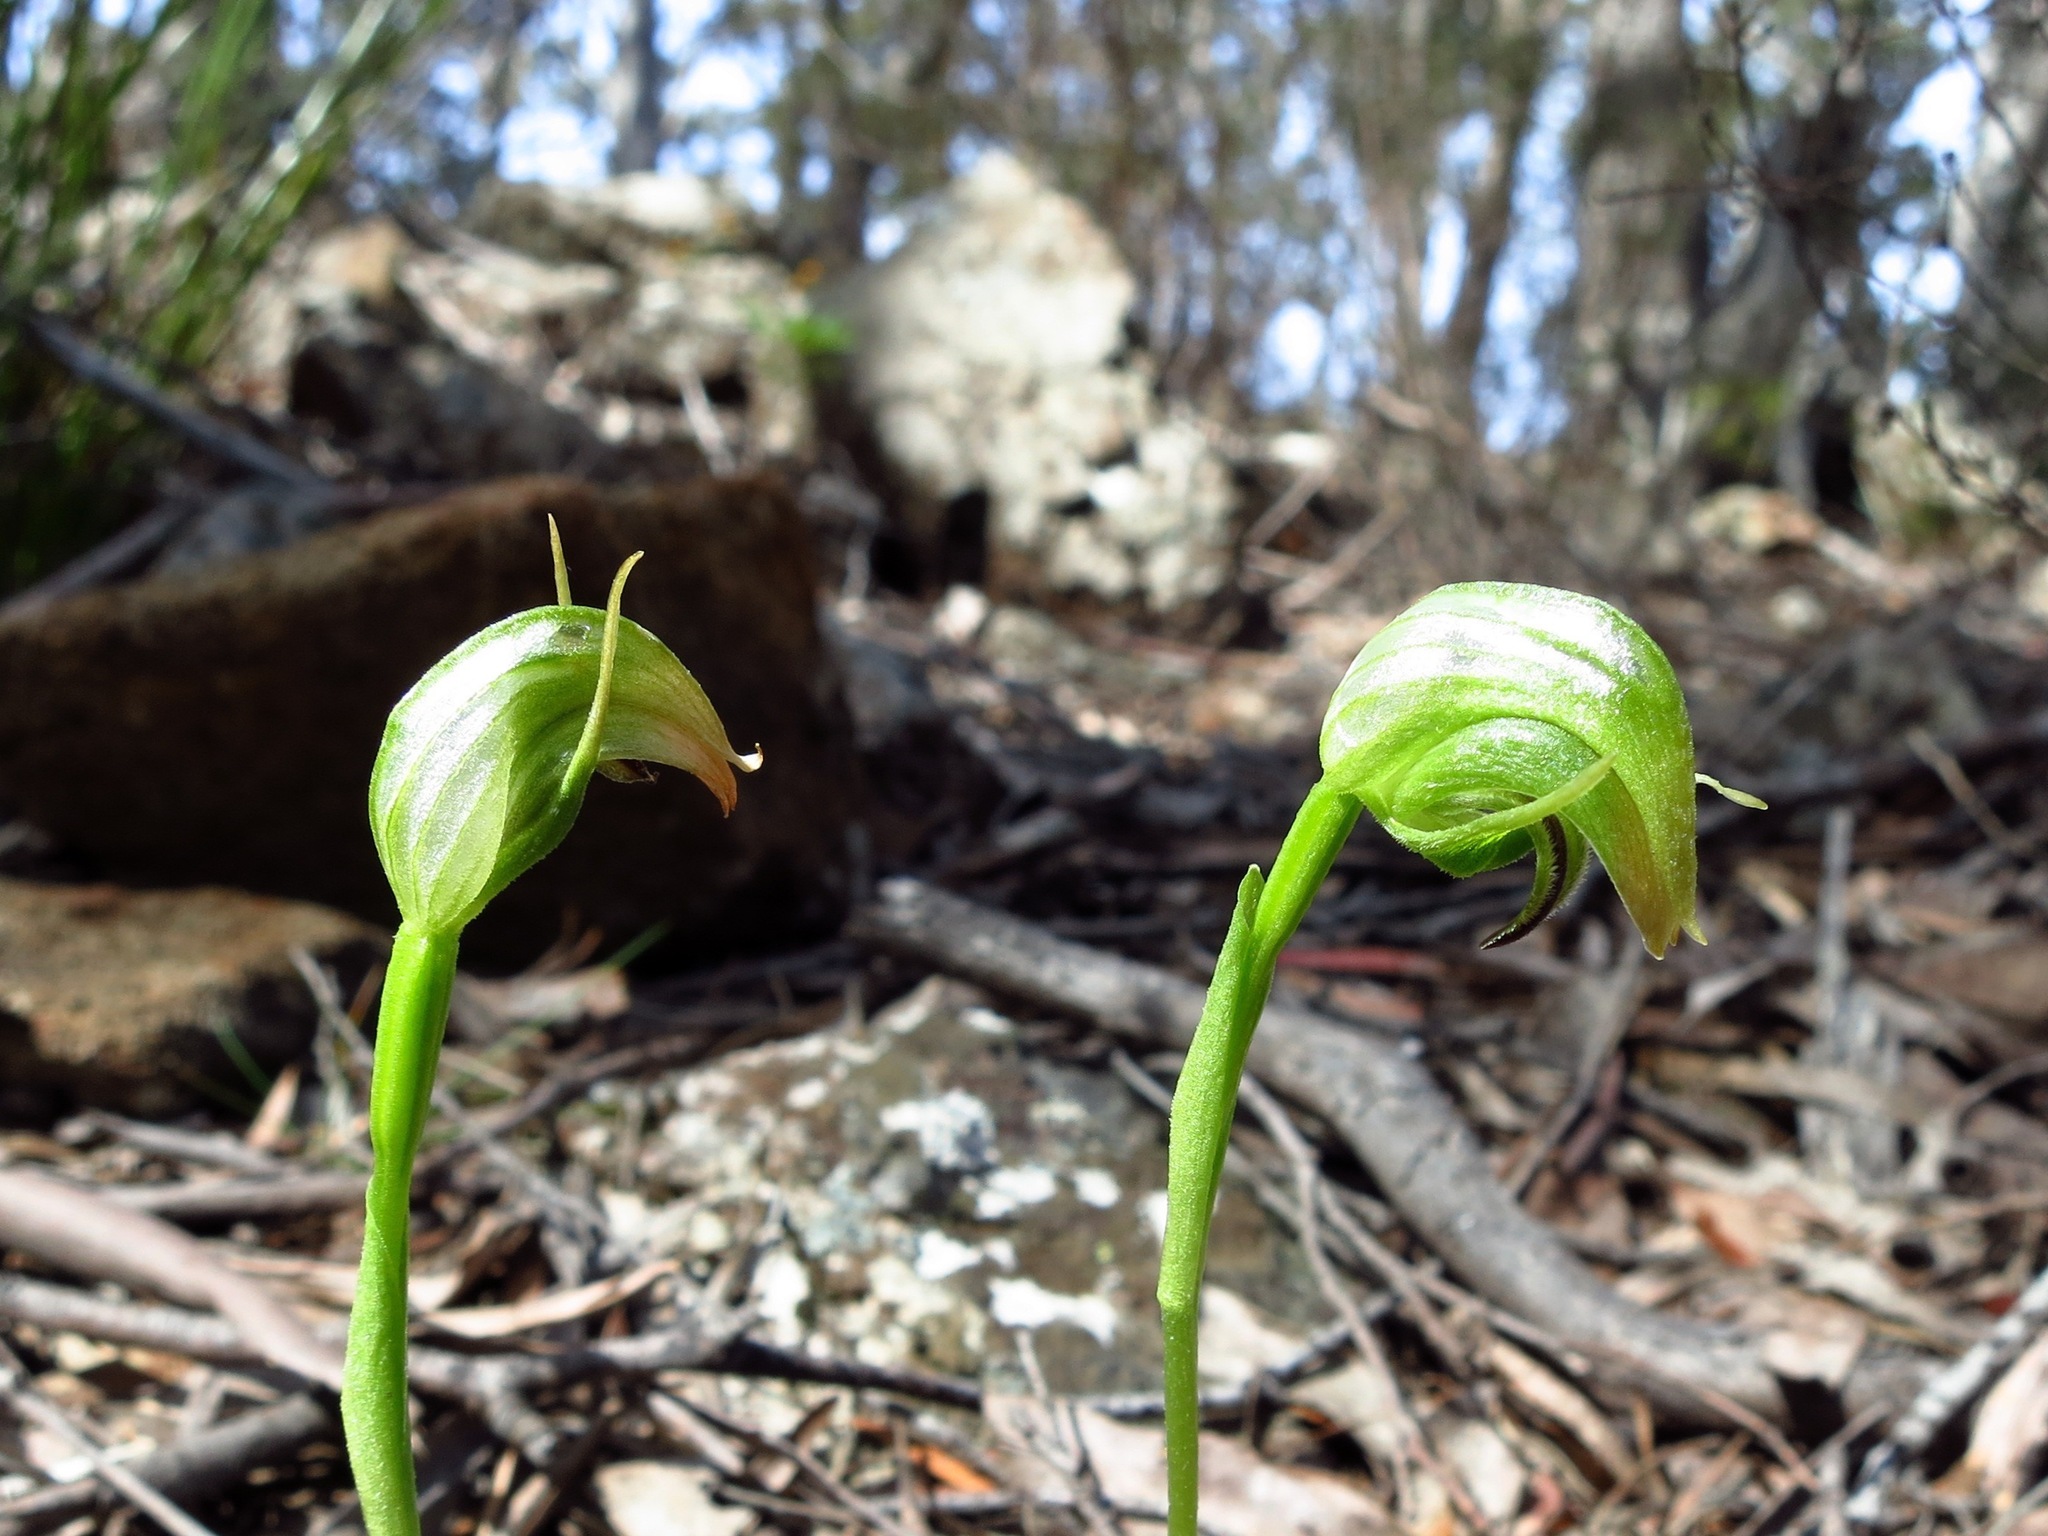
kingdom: Plantae
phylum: Tracheophyta
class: Liliopsida
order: Asparagales
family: Orchidaceae
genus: Pterostylis
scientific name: Pterostylis nutans
